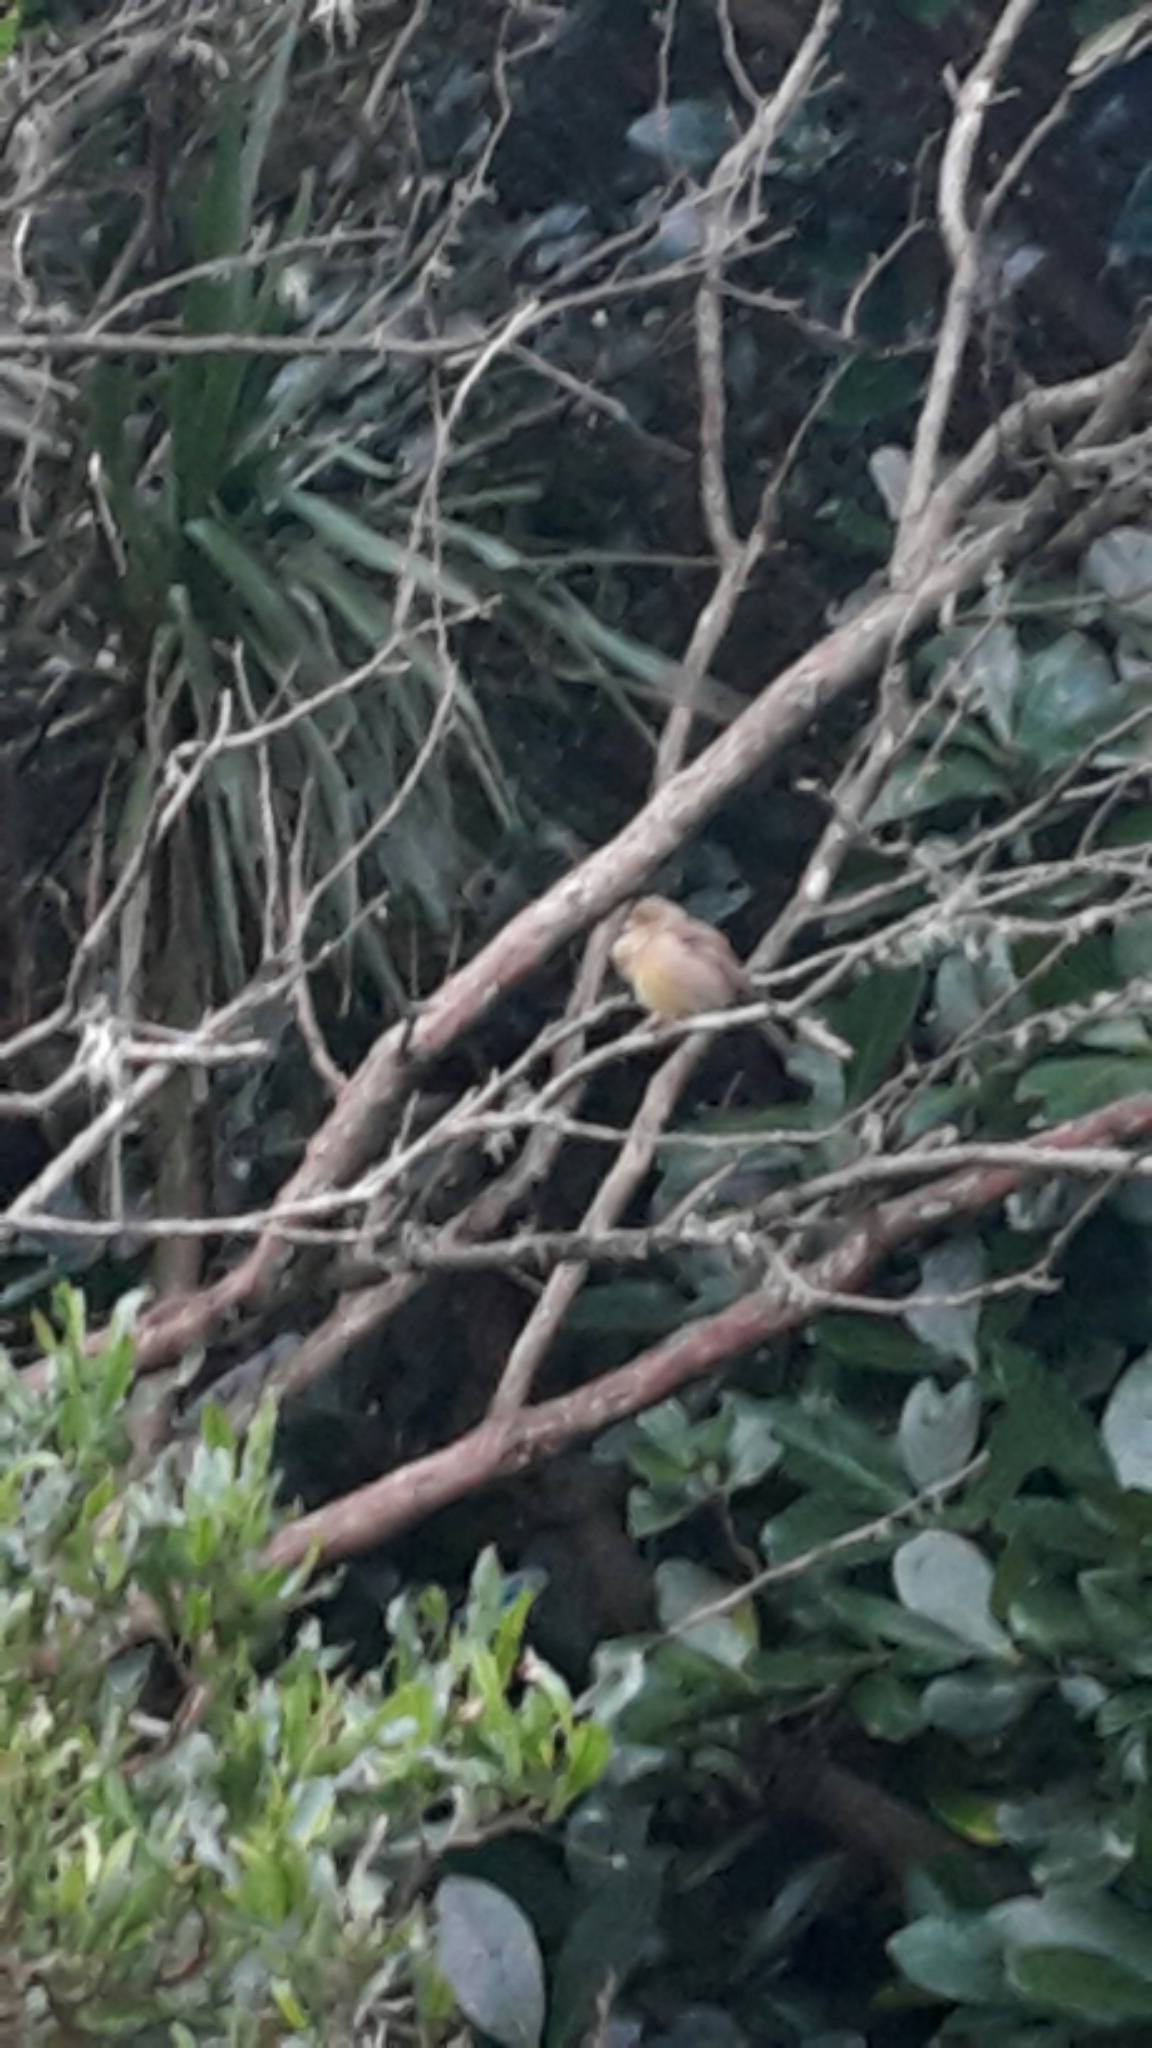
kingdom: Animalia
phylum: Chordata
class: Aves
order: Passeriformes
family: Emberizidae
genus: Emberiza
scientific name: Emberiza citrinella
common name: Yellowhammer
